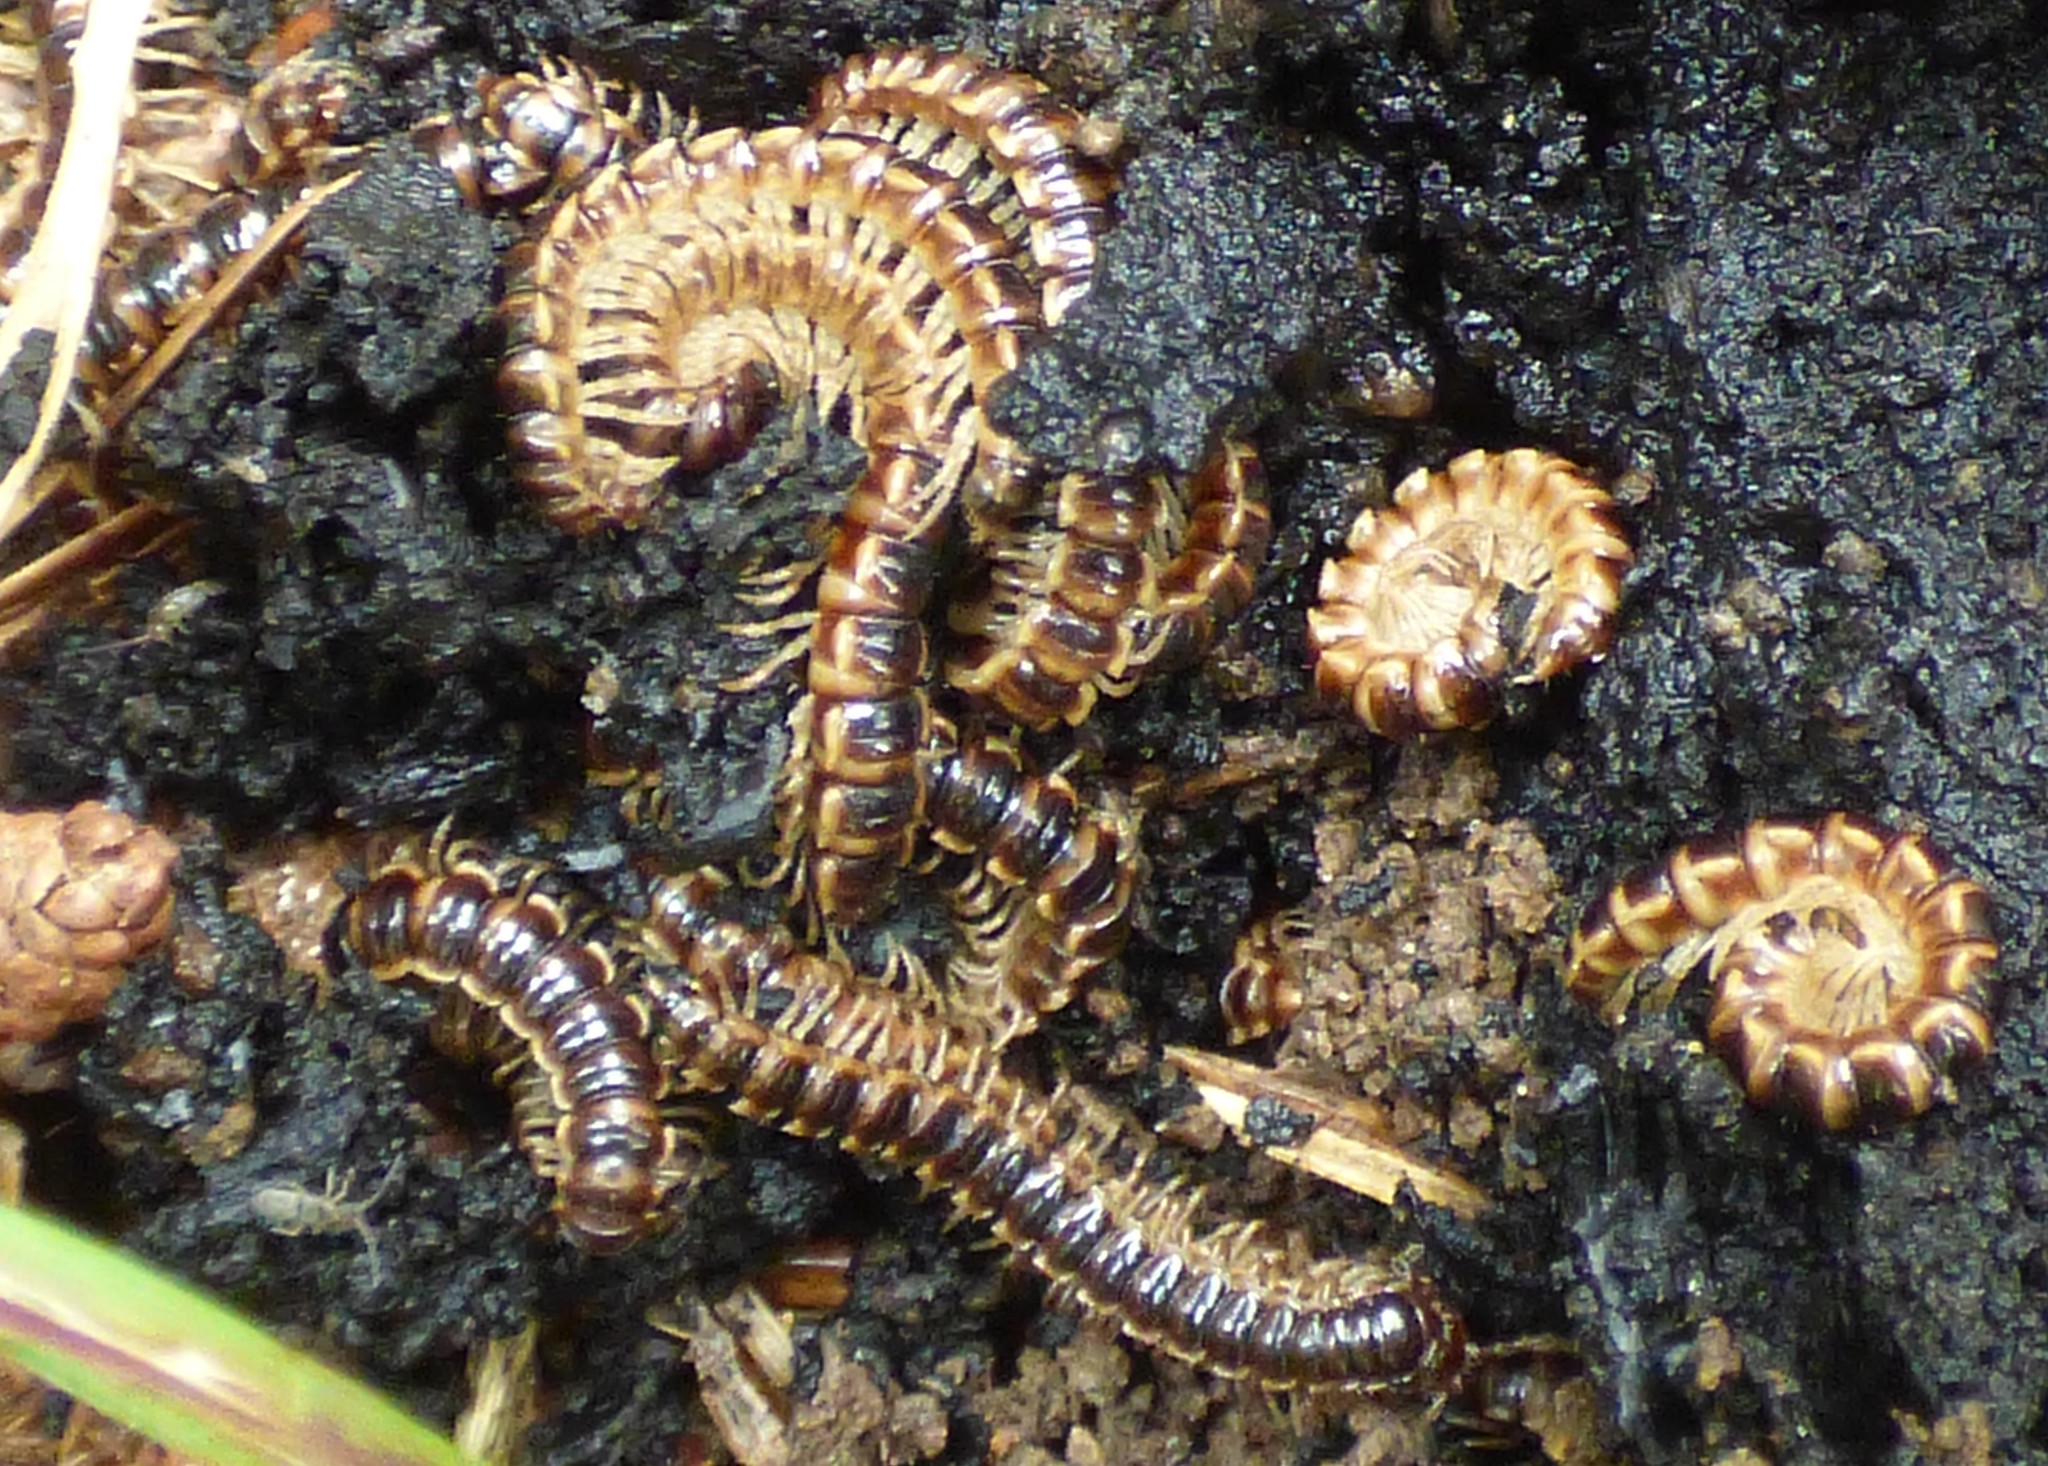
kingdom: Animalia
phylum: Arthropoda
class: Diplopoda
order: Polydesmida
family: Paradoxosomatidae
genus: Oxidus
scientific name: Oxidus gracilis
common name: Greenhouse millipede
